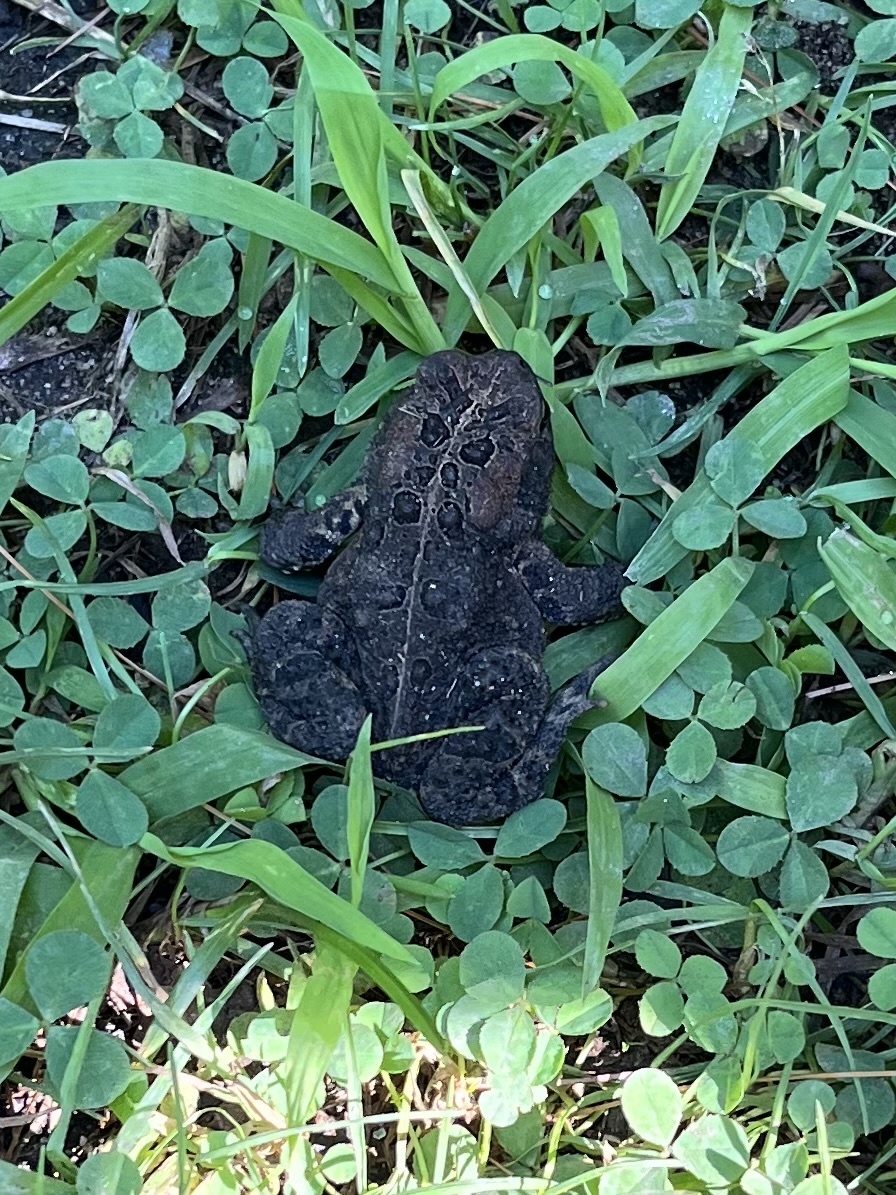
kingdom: Animalia
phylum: Chordata
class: Amphibia
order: Anura
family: Bufonidae
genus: Anaxyrus
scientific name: Anaxyrus americanus
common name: American toad
